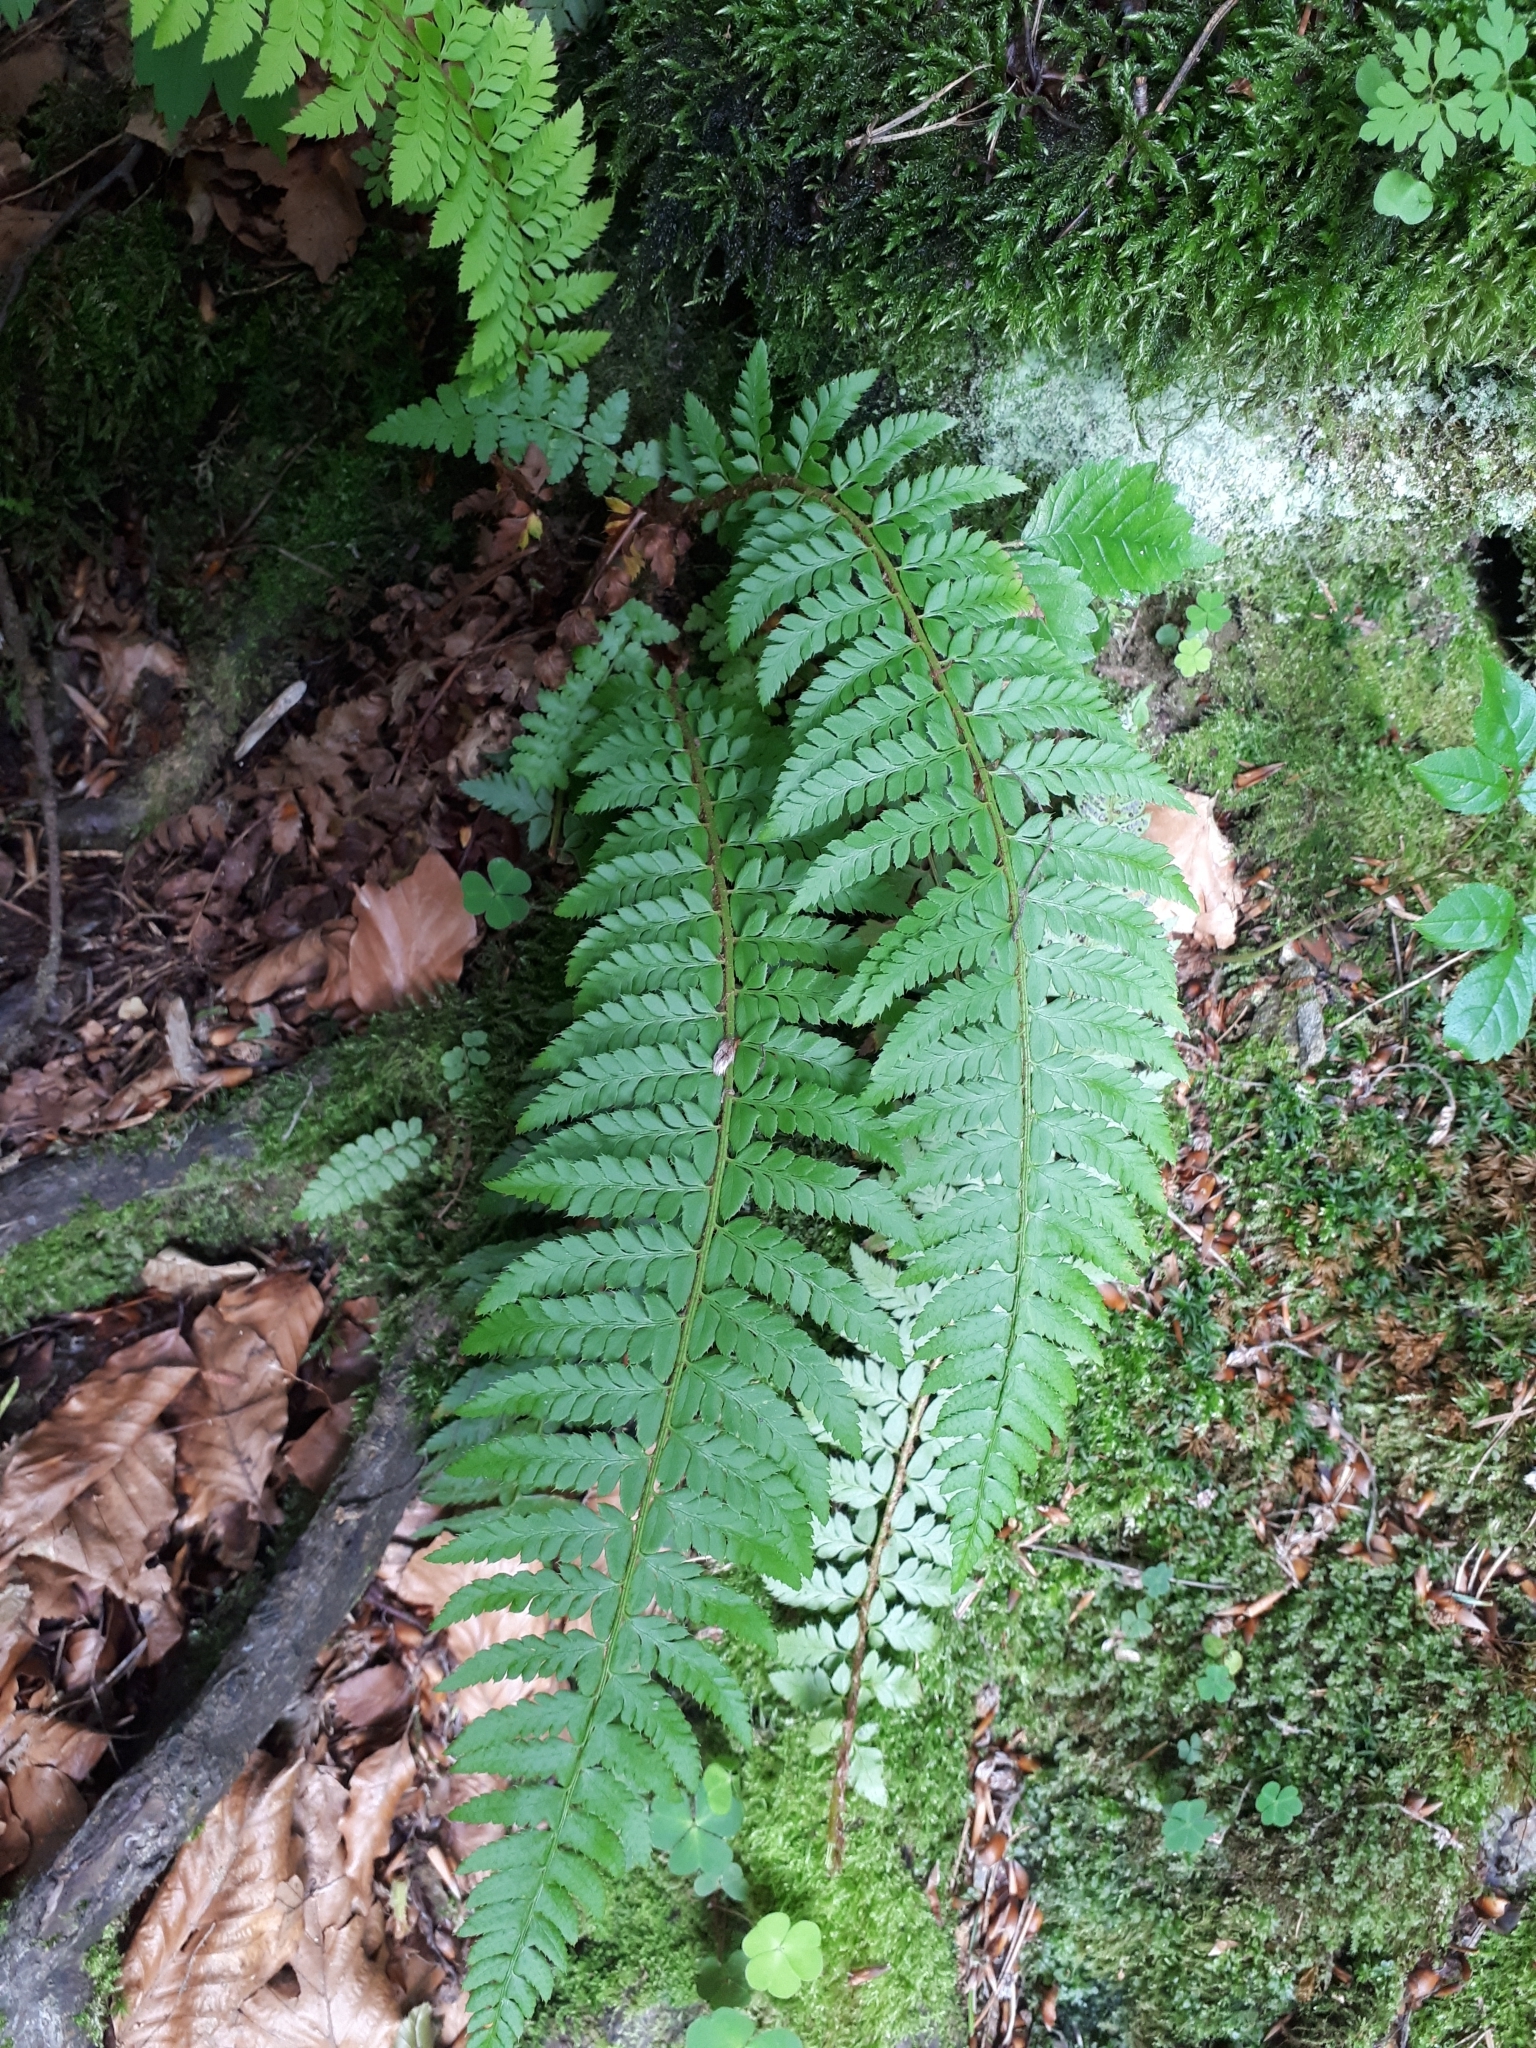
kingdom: Plantae
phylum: Tracheophyta
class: Polypodiopsida
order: Polypodiales
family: Dryopteridaceae
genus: Polystichum
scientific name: Polystichum aculeatum
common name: Hard shield-fern
